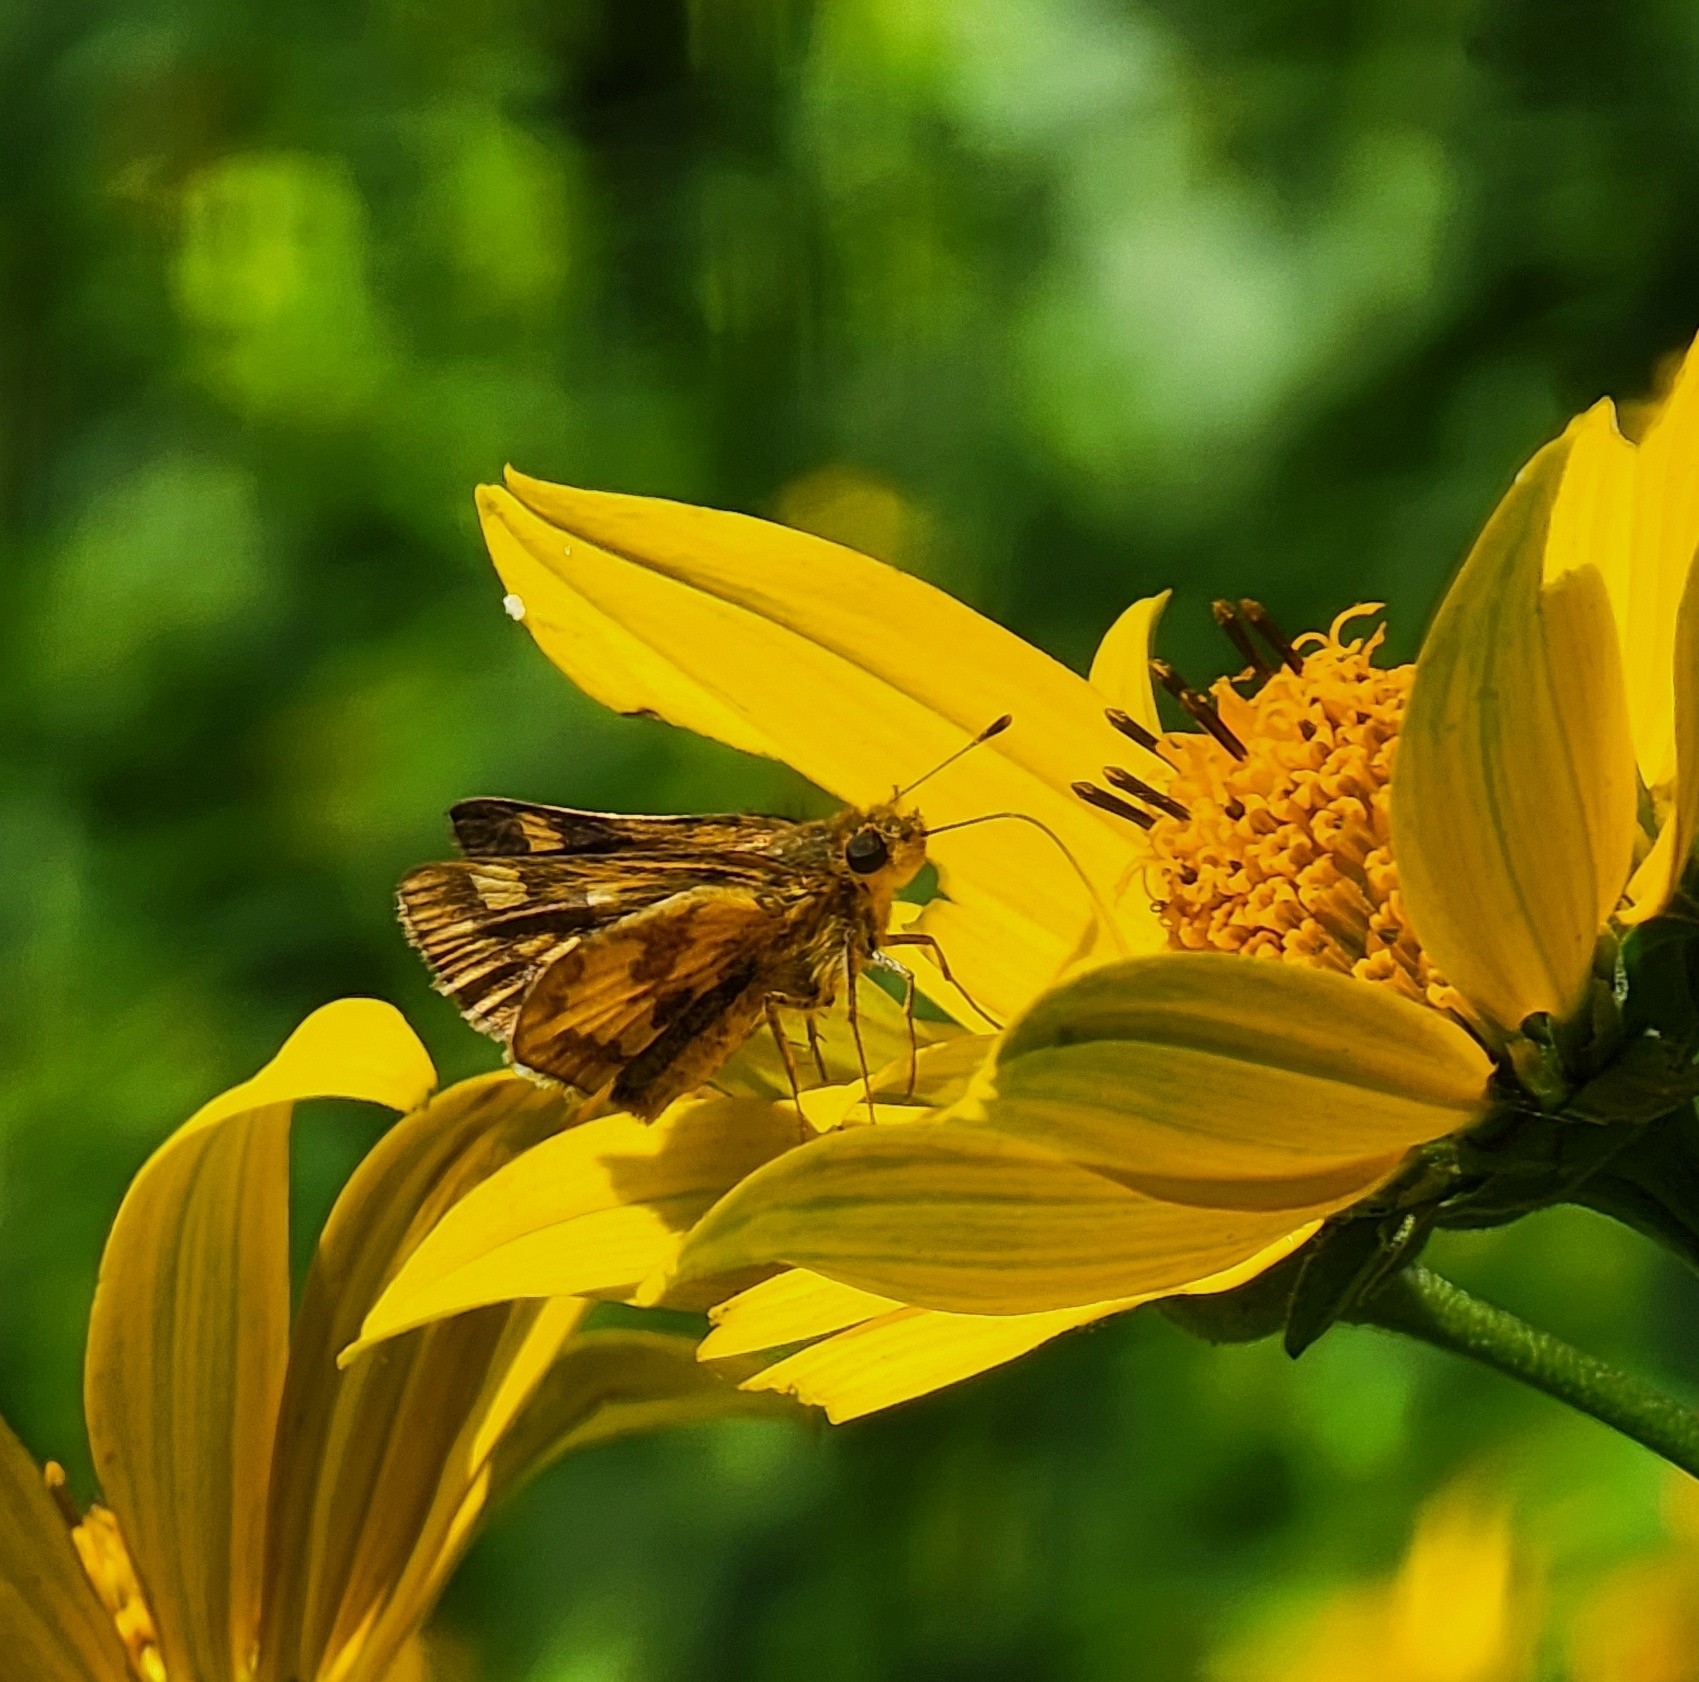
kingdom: Animalia
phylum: Arthropoda
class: Insecta
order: Lepidoptera
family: Hesperiidae
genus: Polites
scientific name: Polites coras
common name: Peck's skipper
